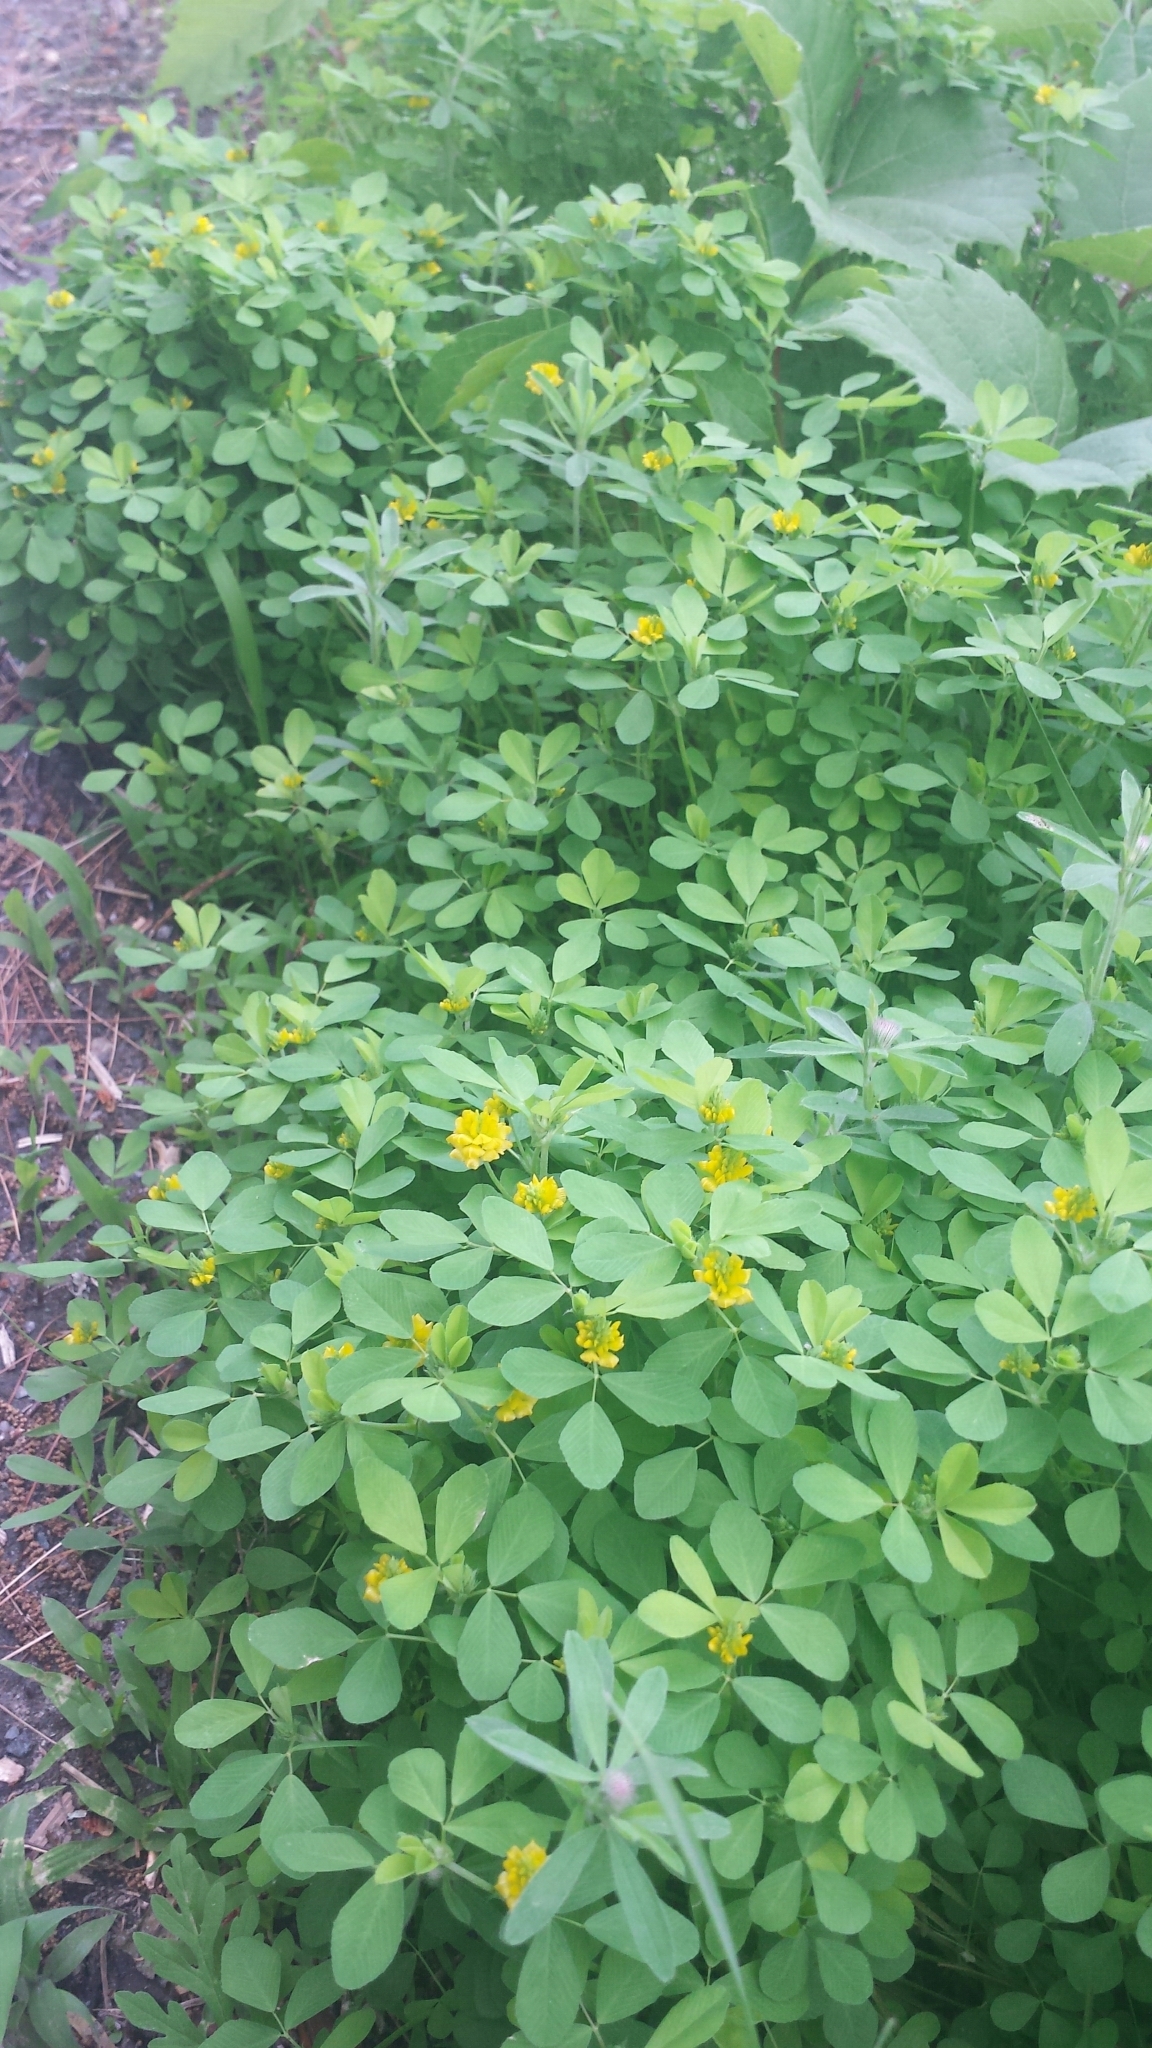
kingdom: Plantae
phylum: Tracheophyta
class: Magnoliopsida
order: Fabales
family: Fabaceae
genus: Trifolium
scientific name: Trifolium campestre
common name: Field clover
